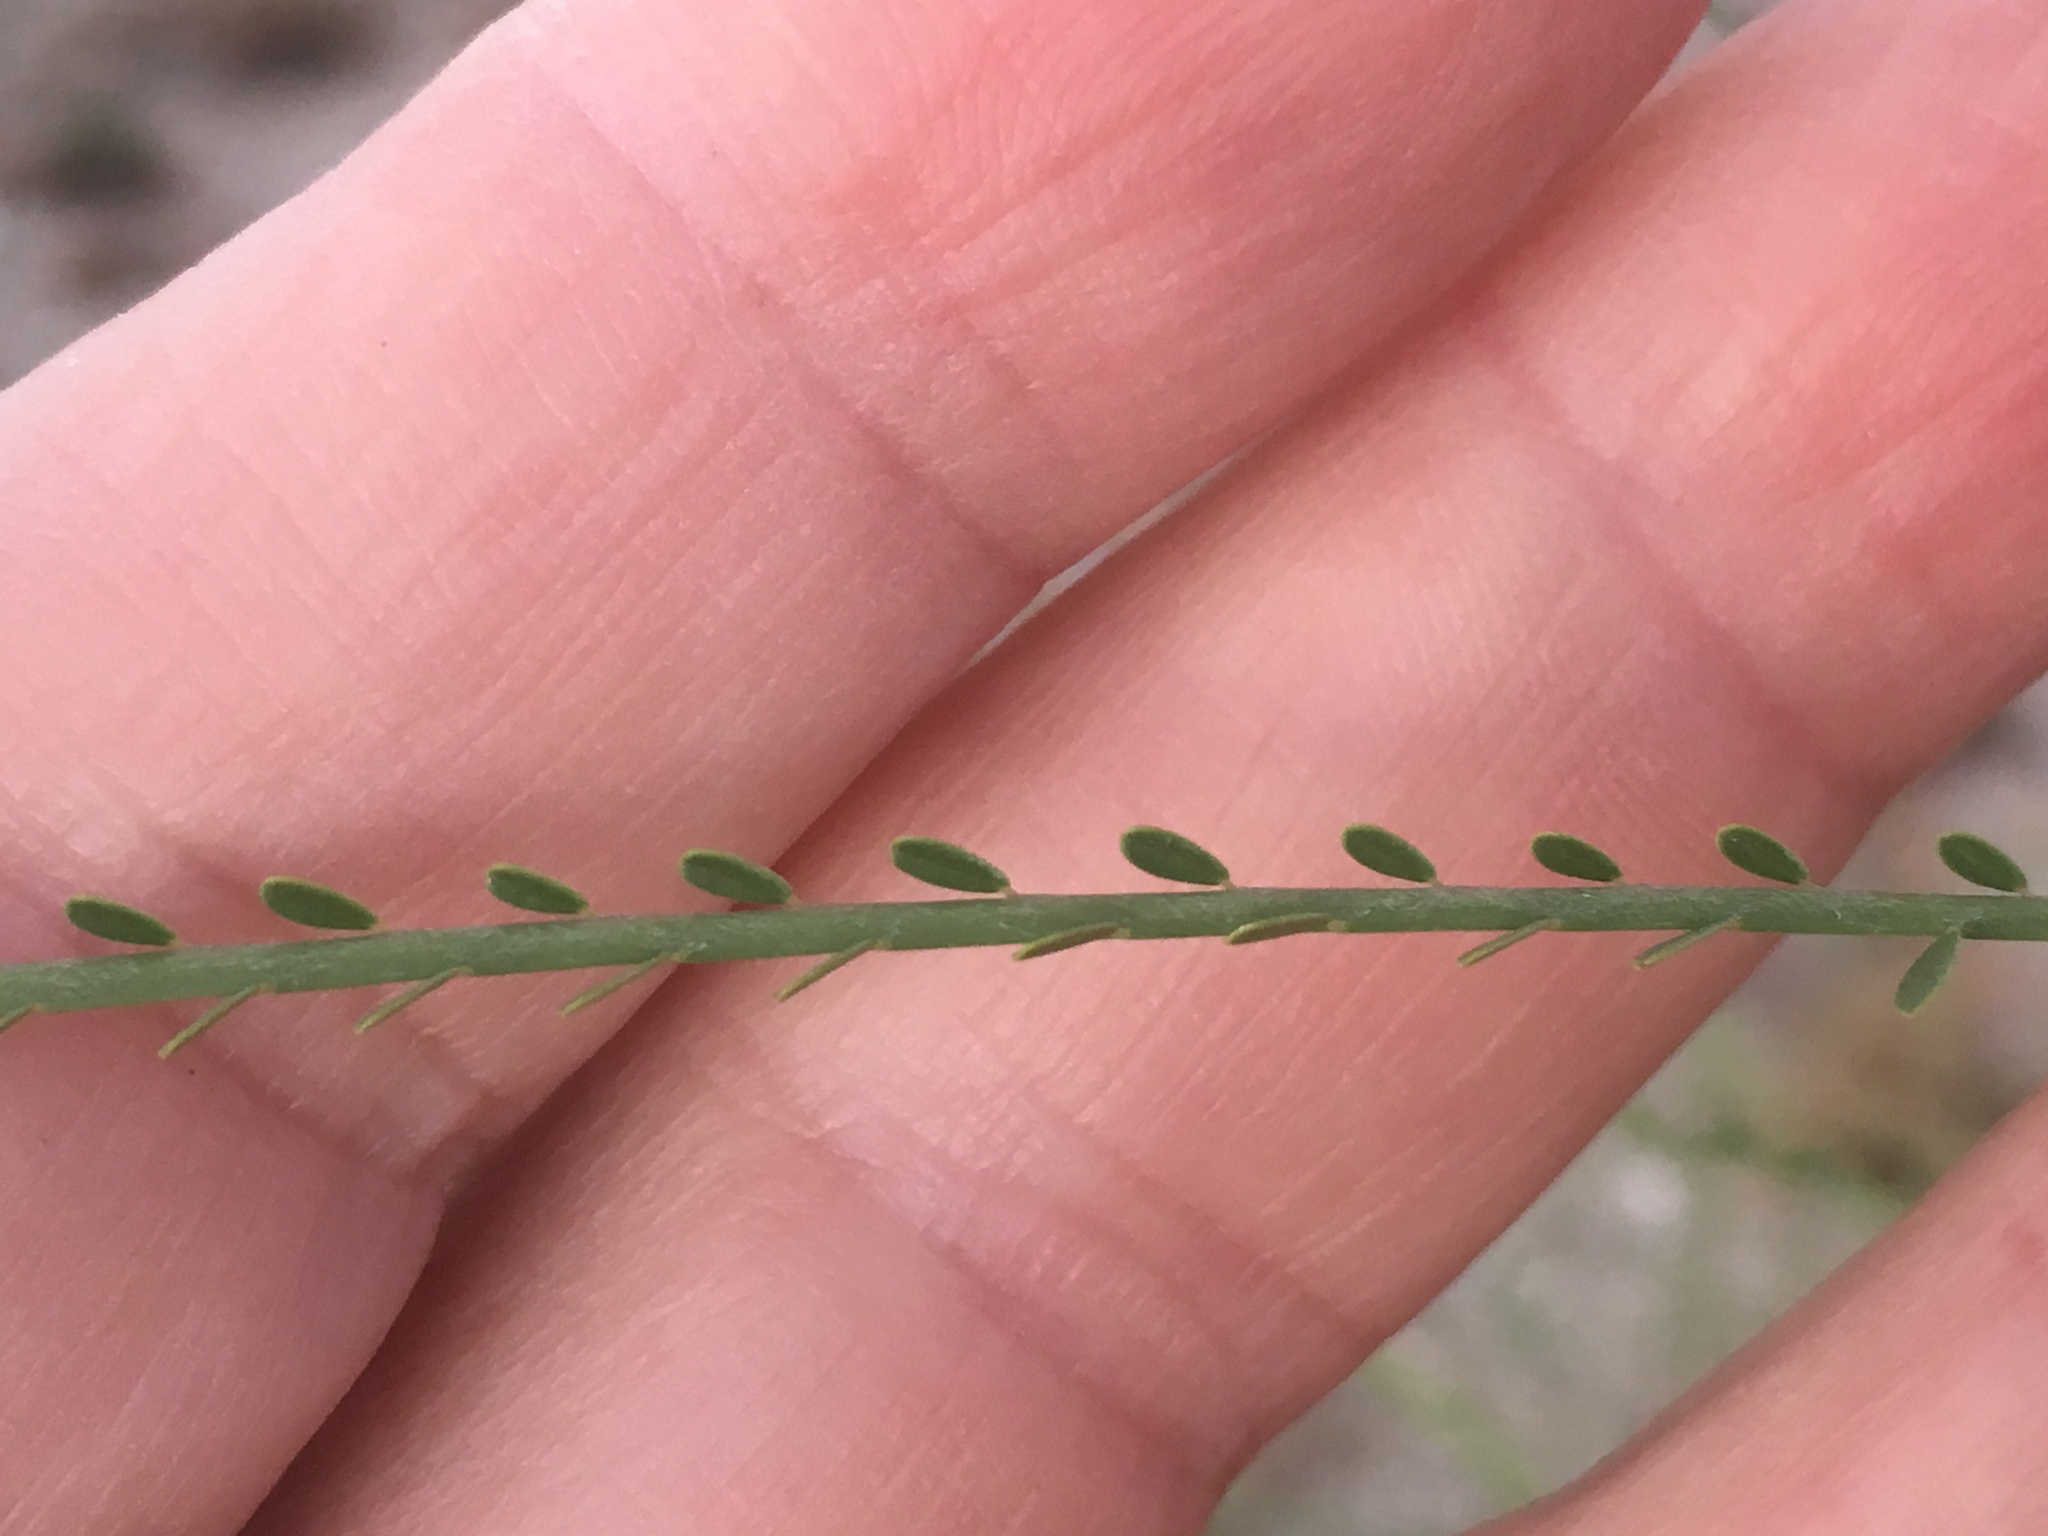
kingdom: Plantae
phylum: Tracheophyta
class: Magnoliopsida
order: Fabales
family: Fabaceae
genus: Parkinsonia
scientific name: Parkinsonia aculeata
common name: Jerusalem thorn
